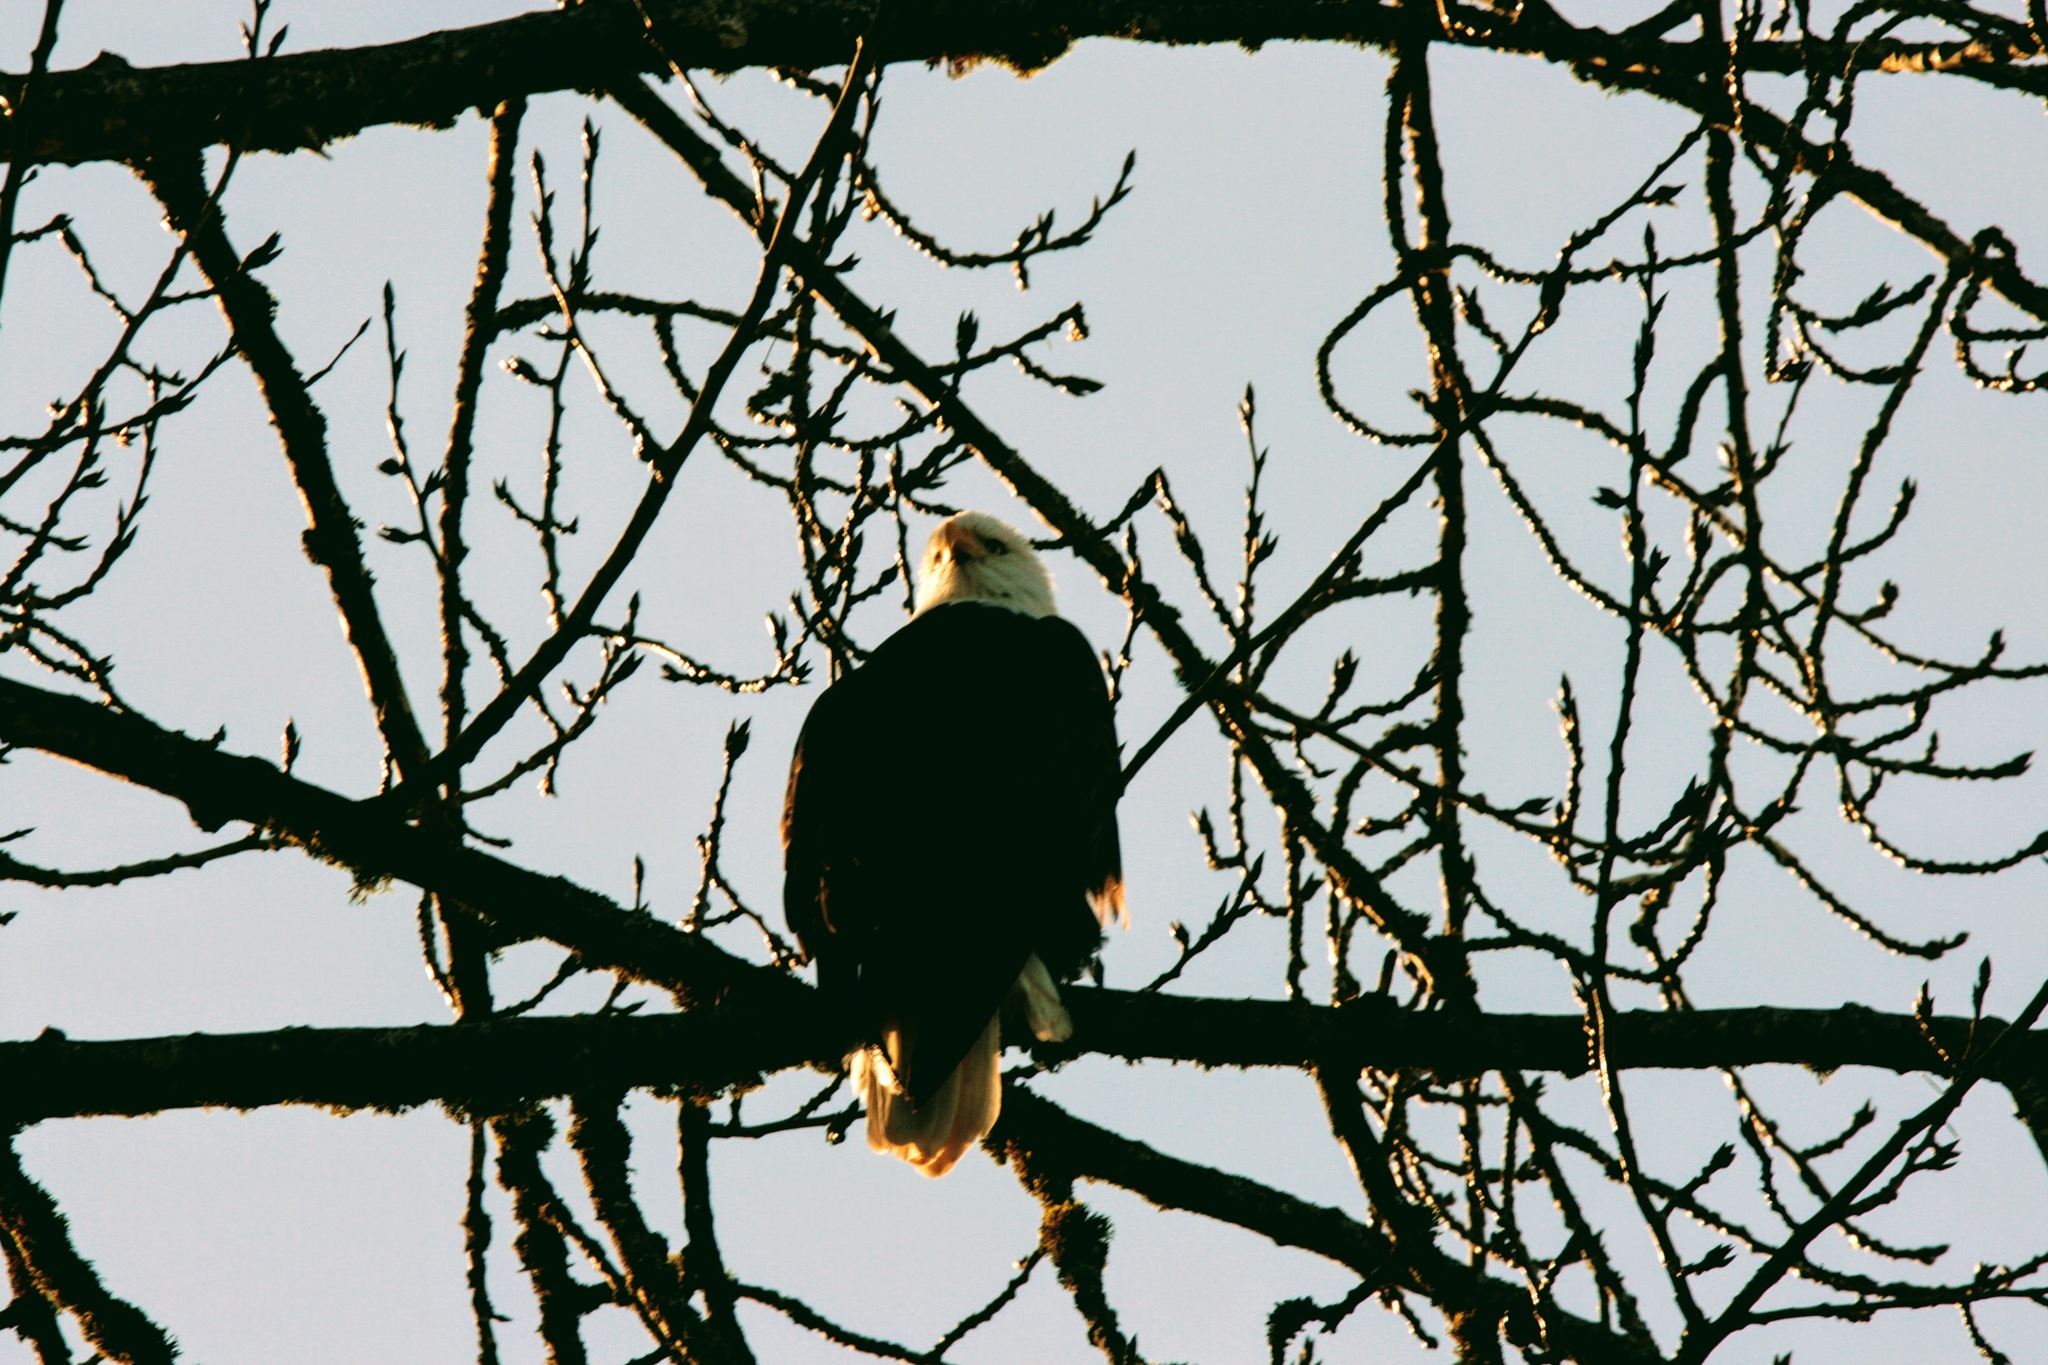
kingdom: Animalia
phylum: Chordata
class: Aves
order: Accipitriformes
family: Accipitridae
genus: Haliaeetus
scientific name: Haliaeetus leucocephalus
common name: Bald eagle
